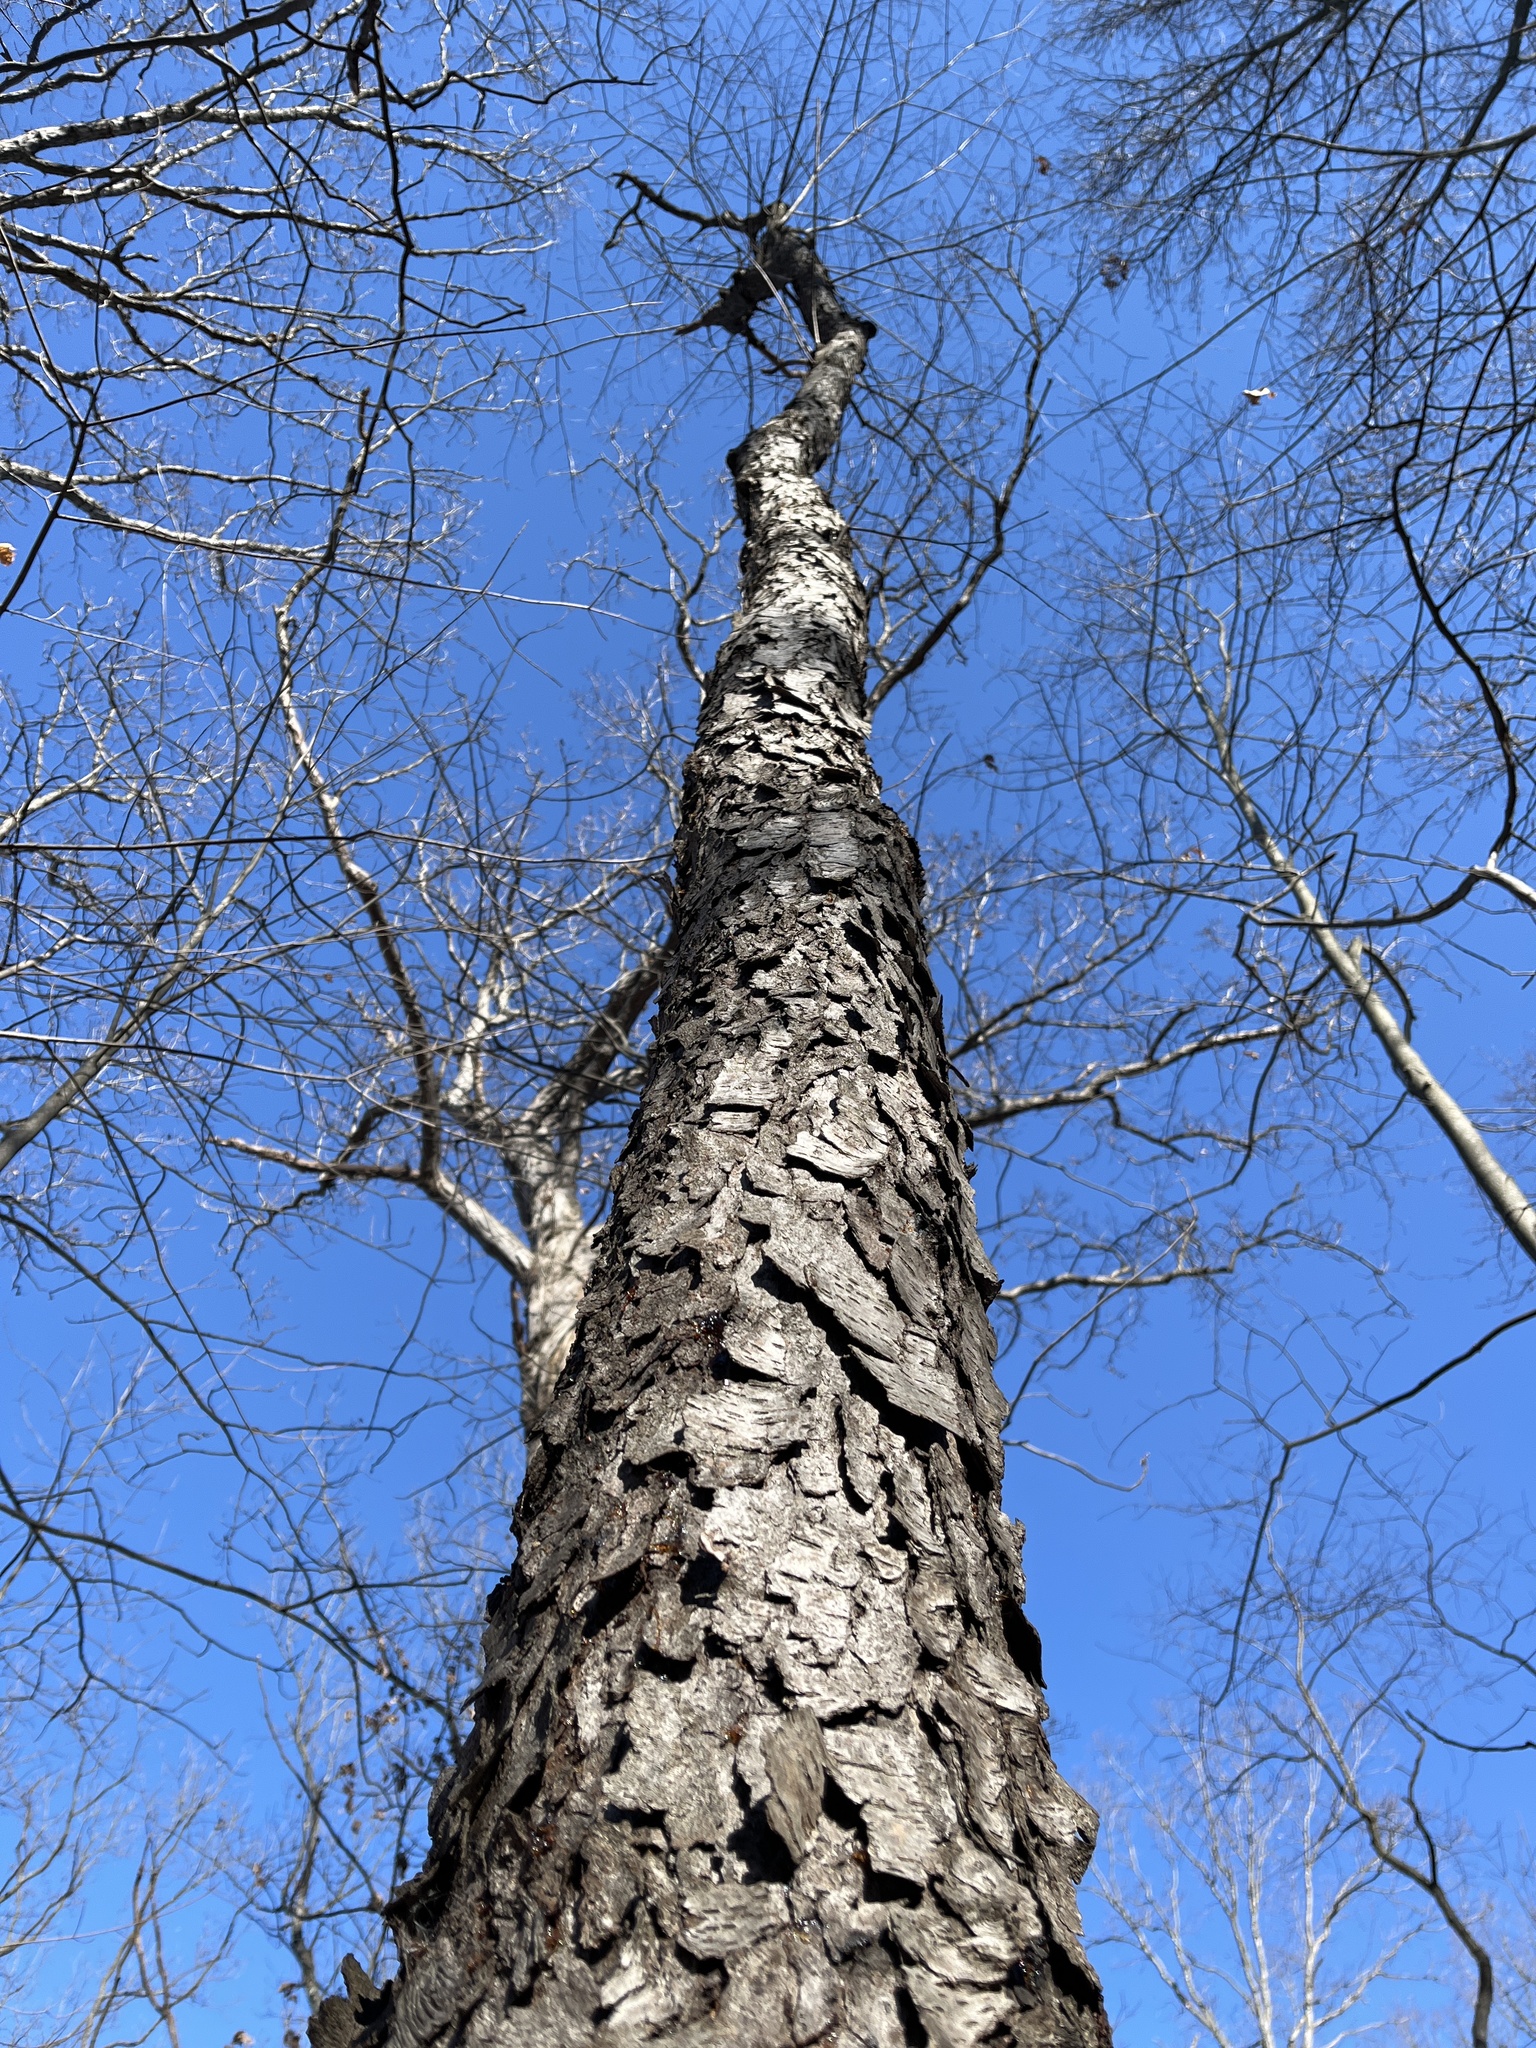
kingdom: Plantae
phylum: Tracheophyta
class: Magnoliopsida
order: Rosales
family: Rosaceae
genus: Prunus
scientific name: Prunus serotina
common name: Black cherry
